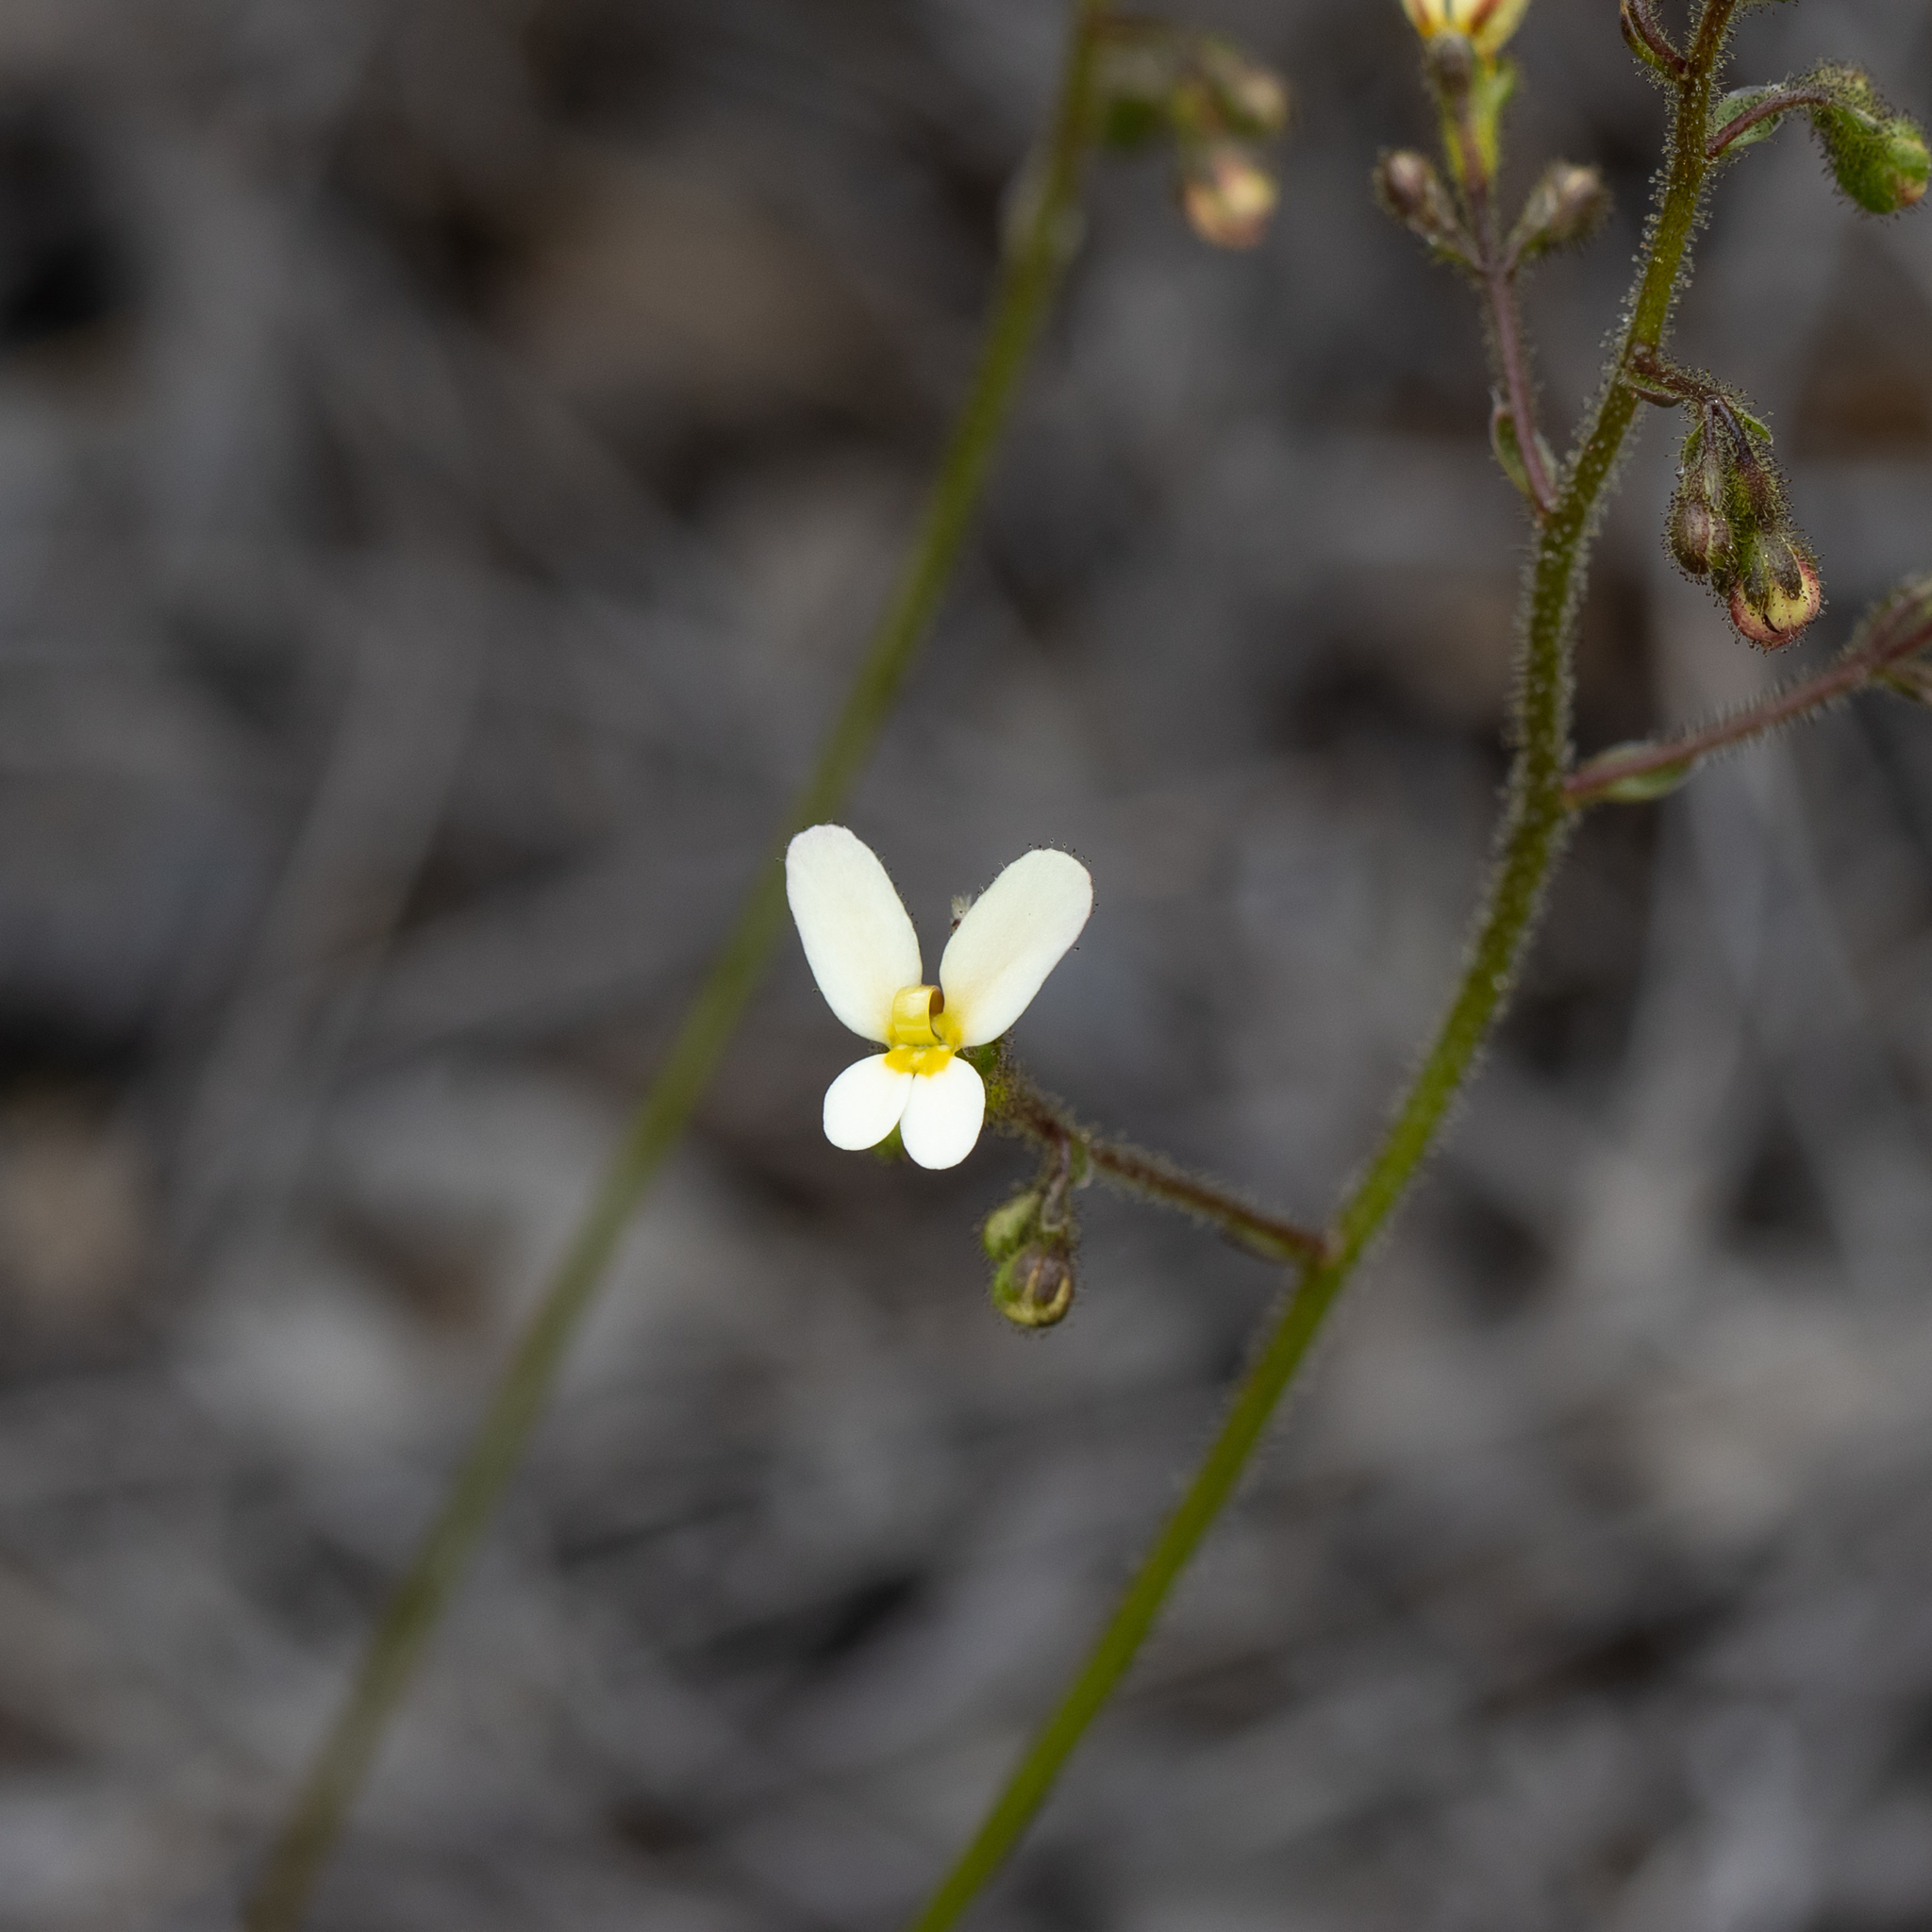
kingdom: Plantae
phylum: Tracheophyta
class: Magnoliopsida
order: Asterales
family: Stylidiaceae
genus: Stylidium
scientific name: Stylidium piliferum
